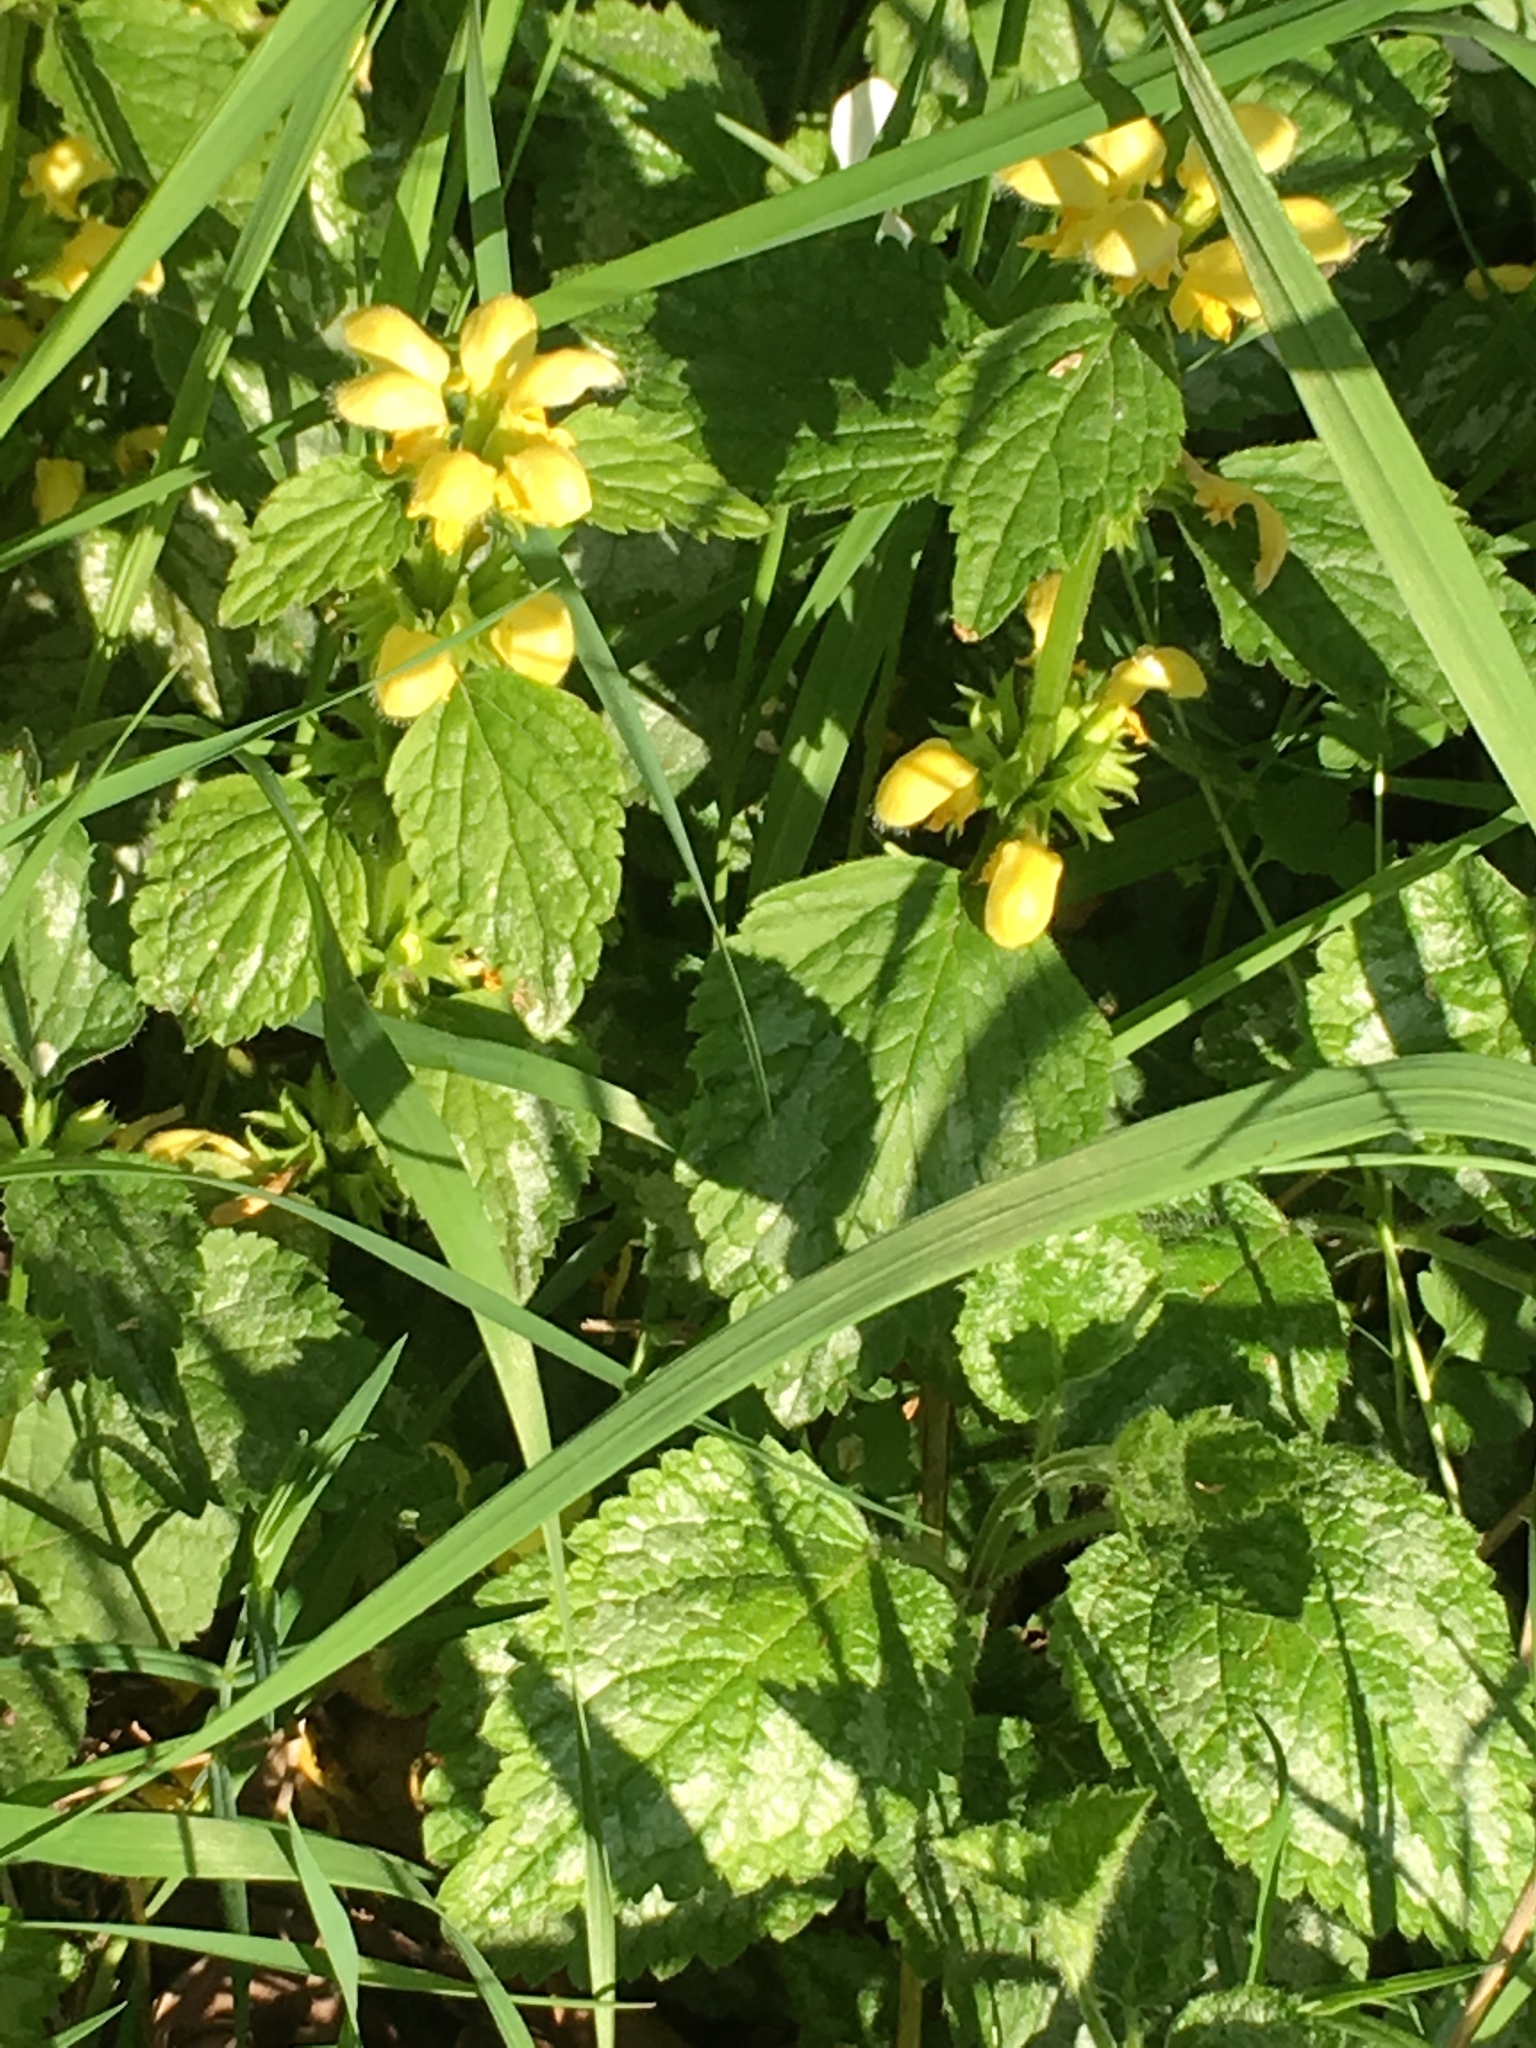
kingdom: Plantae
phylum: Tracheophyta
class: Magnoliopsida
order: Lamiales
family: Lamiaceae
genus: Lamium
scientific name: Lamium galeobdolon
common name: Yellow archangel
